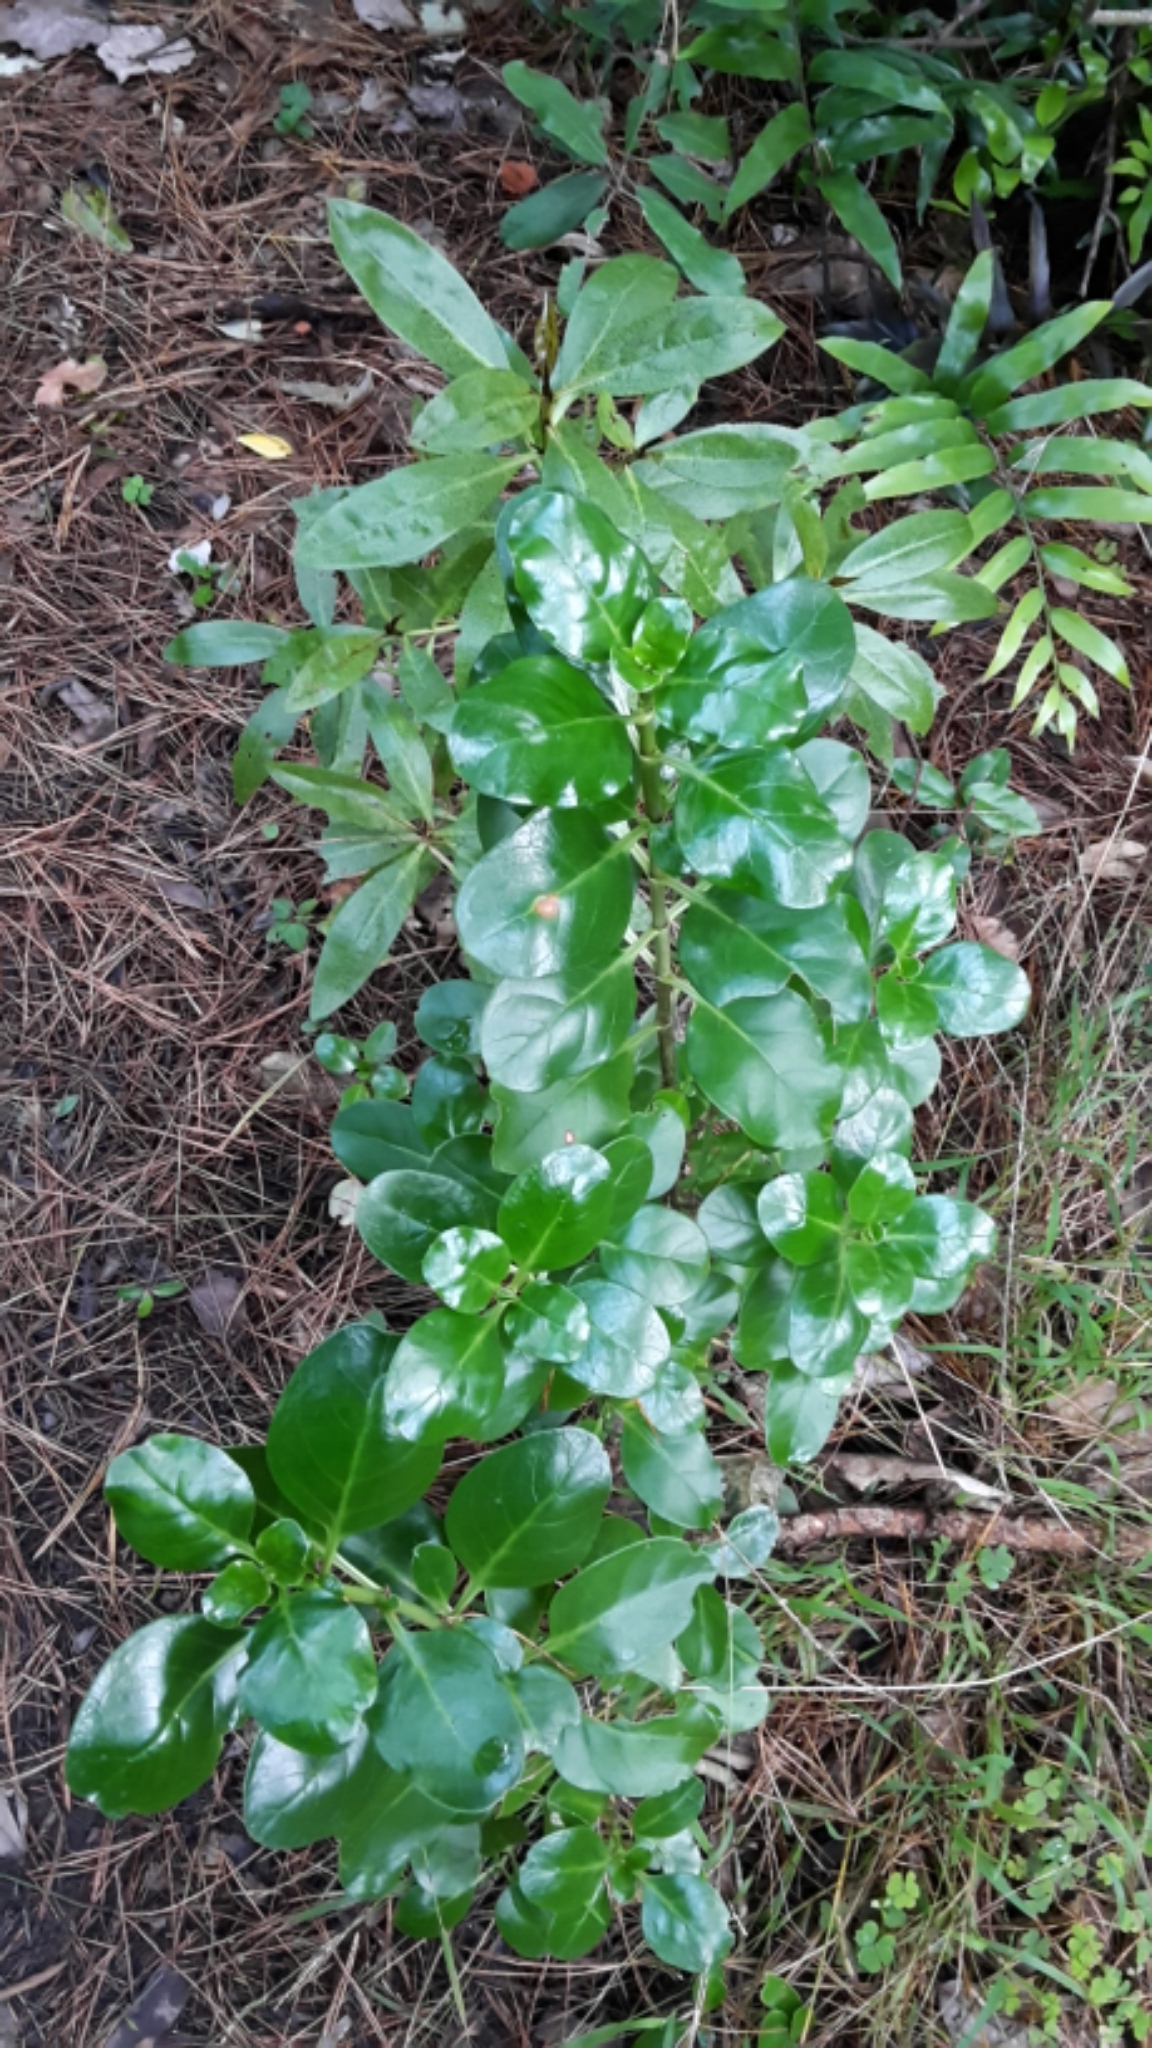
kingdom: Plantae
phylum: Tracheophyta
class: Magnoliopsida
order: Gentianales
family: Rubiaceae
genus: Coprosma
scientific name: Coprosma repens
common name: Tree bedstraw
